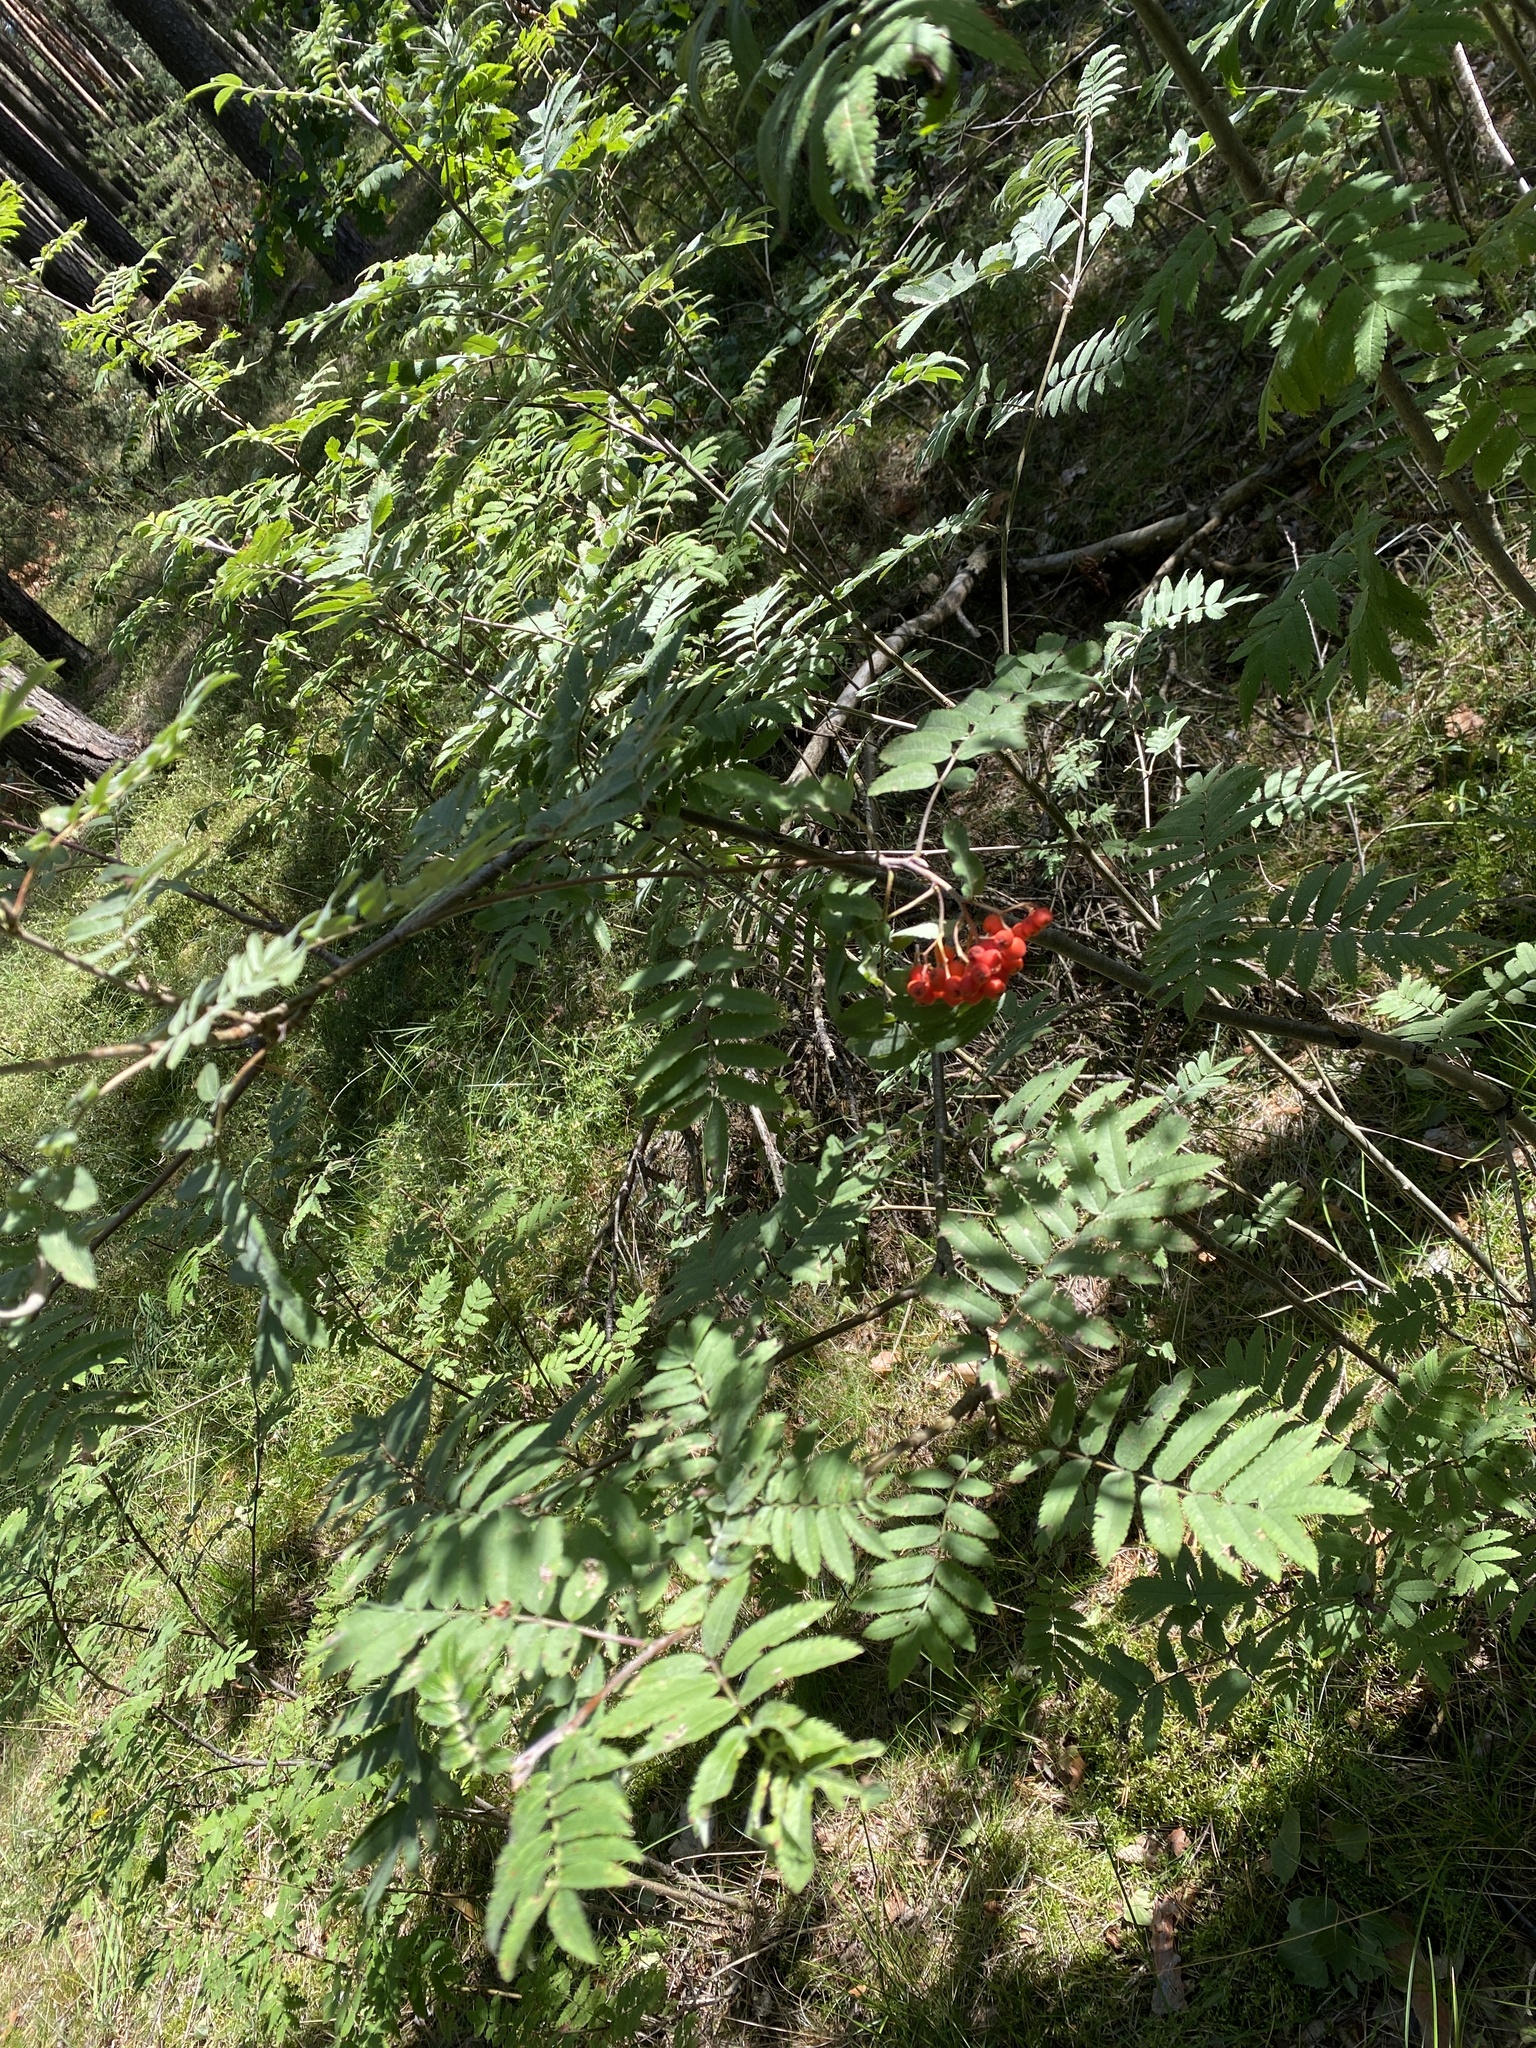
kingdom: Plantae
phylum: Tracheophyta
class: Magnoliopsida
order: Rosales
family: Rosaceae
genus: Sorbus
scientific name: Sorbus aucuparia
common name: Rowan
